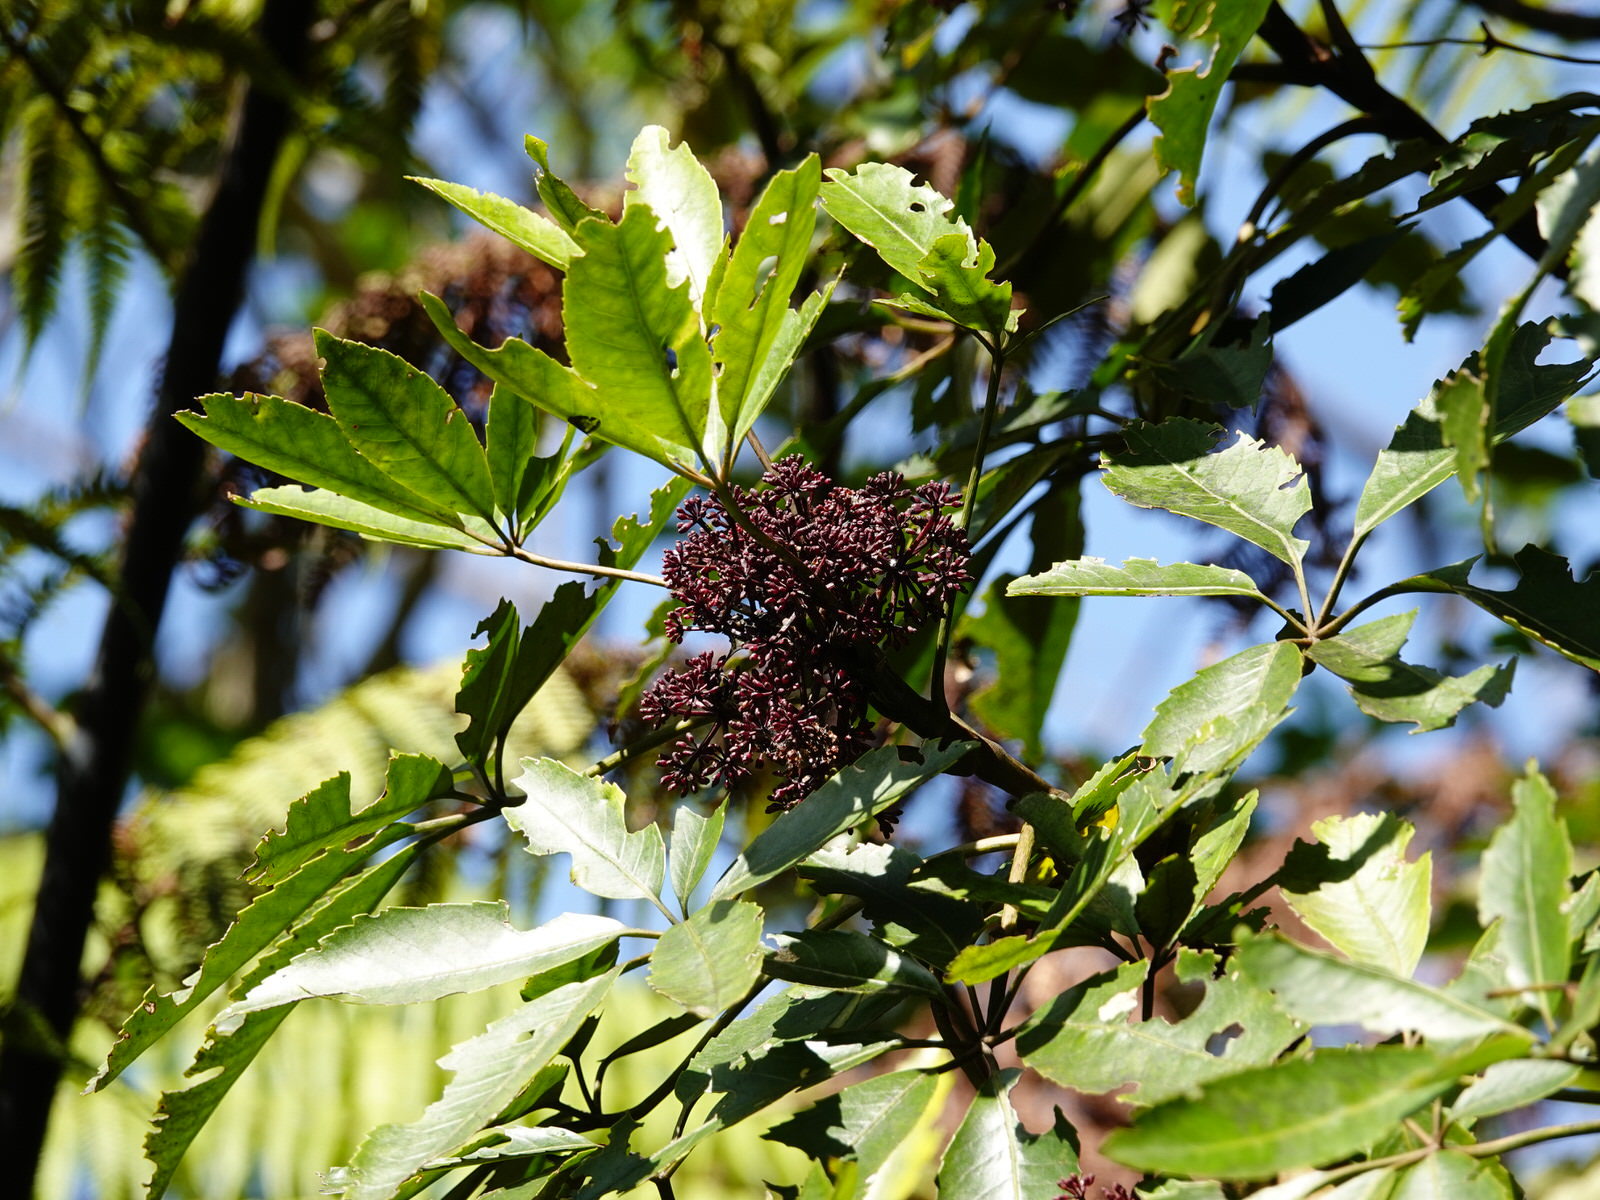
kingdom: Plantae
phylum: Tracheophyta
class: Magnoliopsida
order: Apiales
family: Araliaceae
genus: Neopanax
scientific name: Neopanax arboreus
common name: Five-fingers
